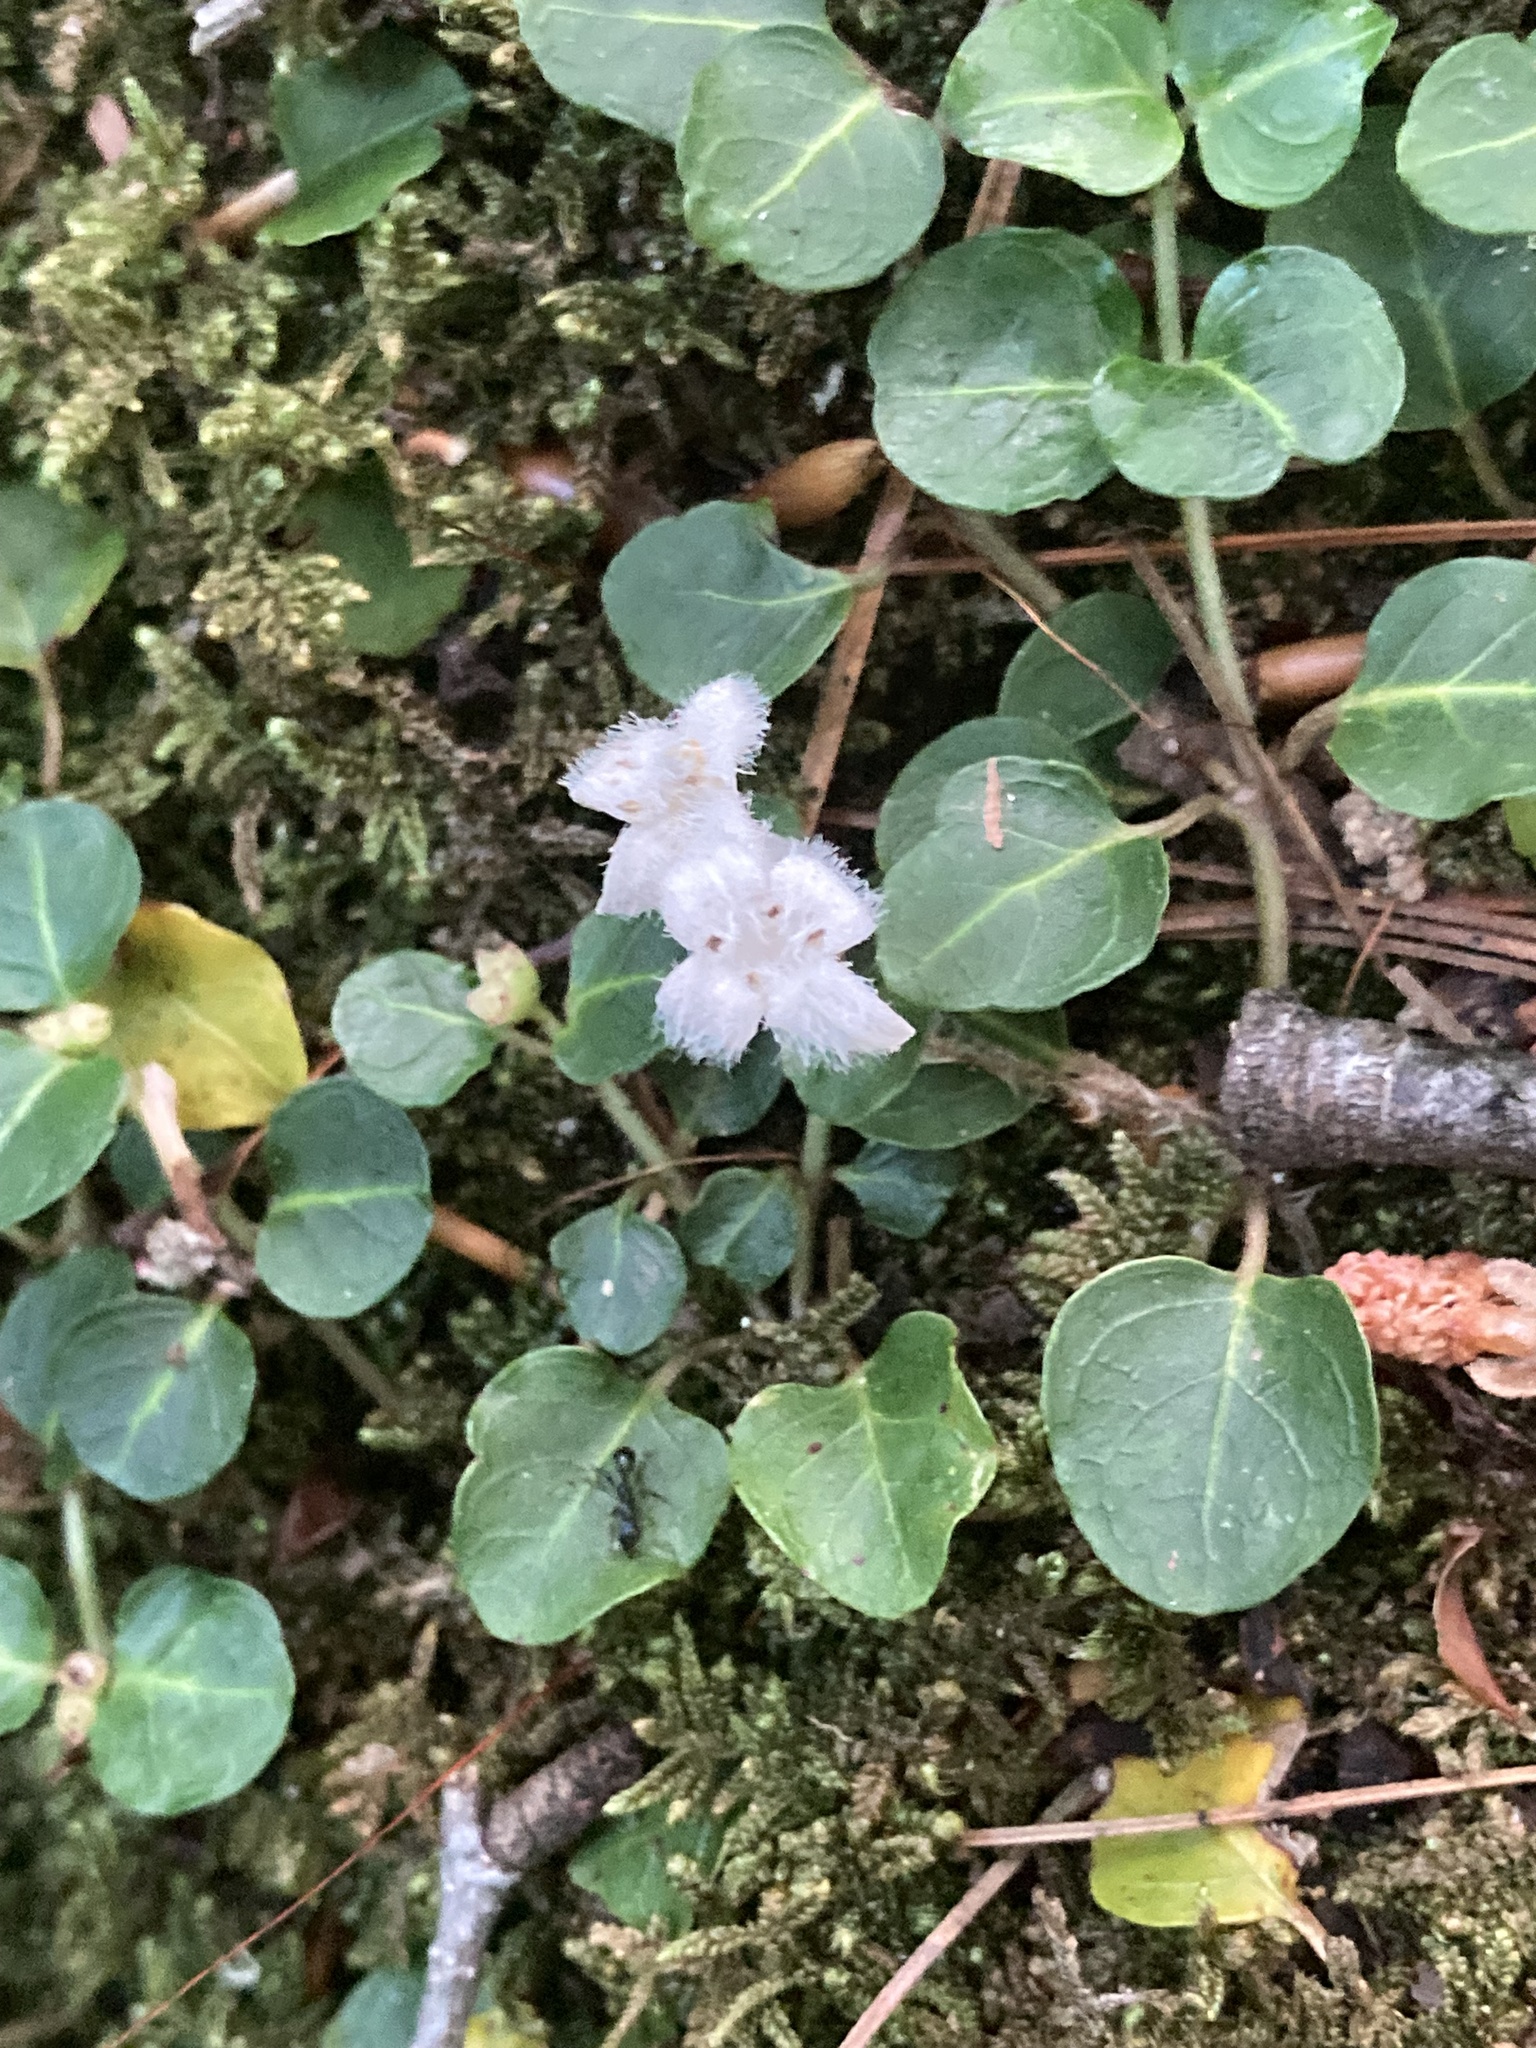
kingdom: Plantae
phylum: Tracheophyta
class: Magnoliopsida
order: Gentianales
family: Rubiaceae
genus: Mitchella
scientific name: Mitchella repens
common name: Partridge-berry
